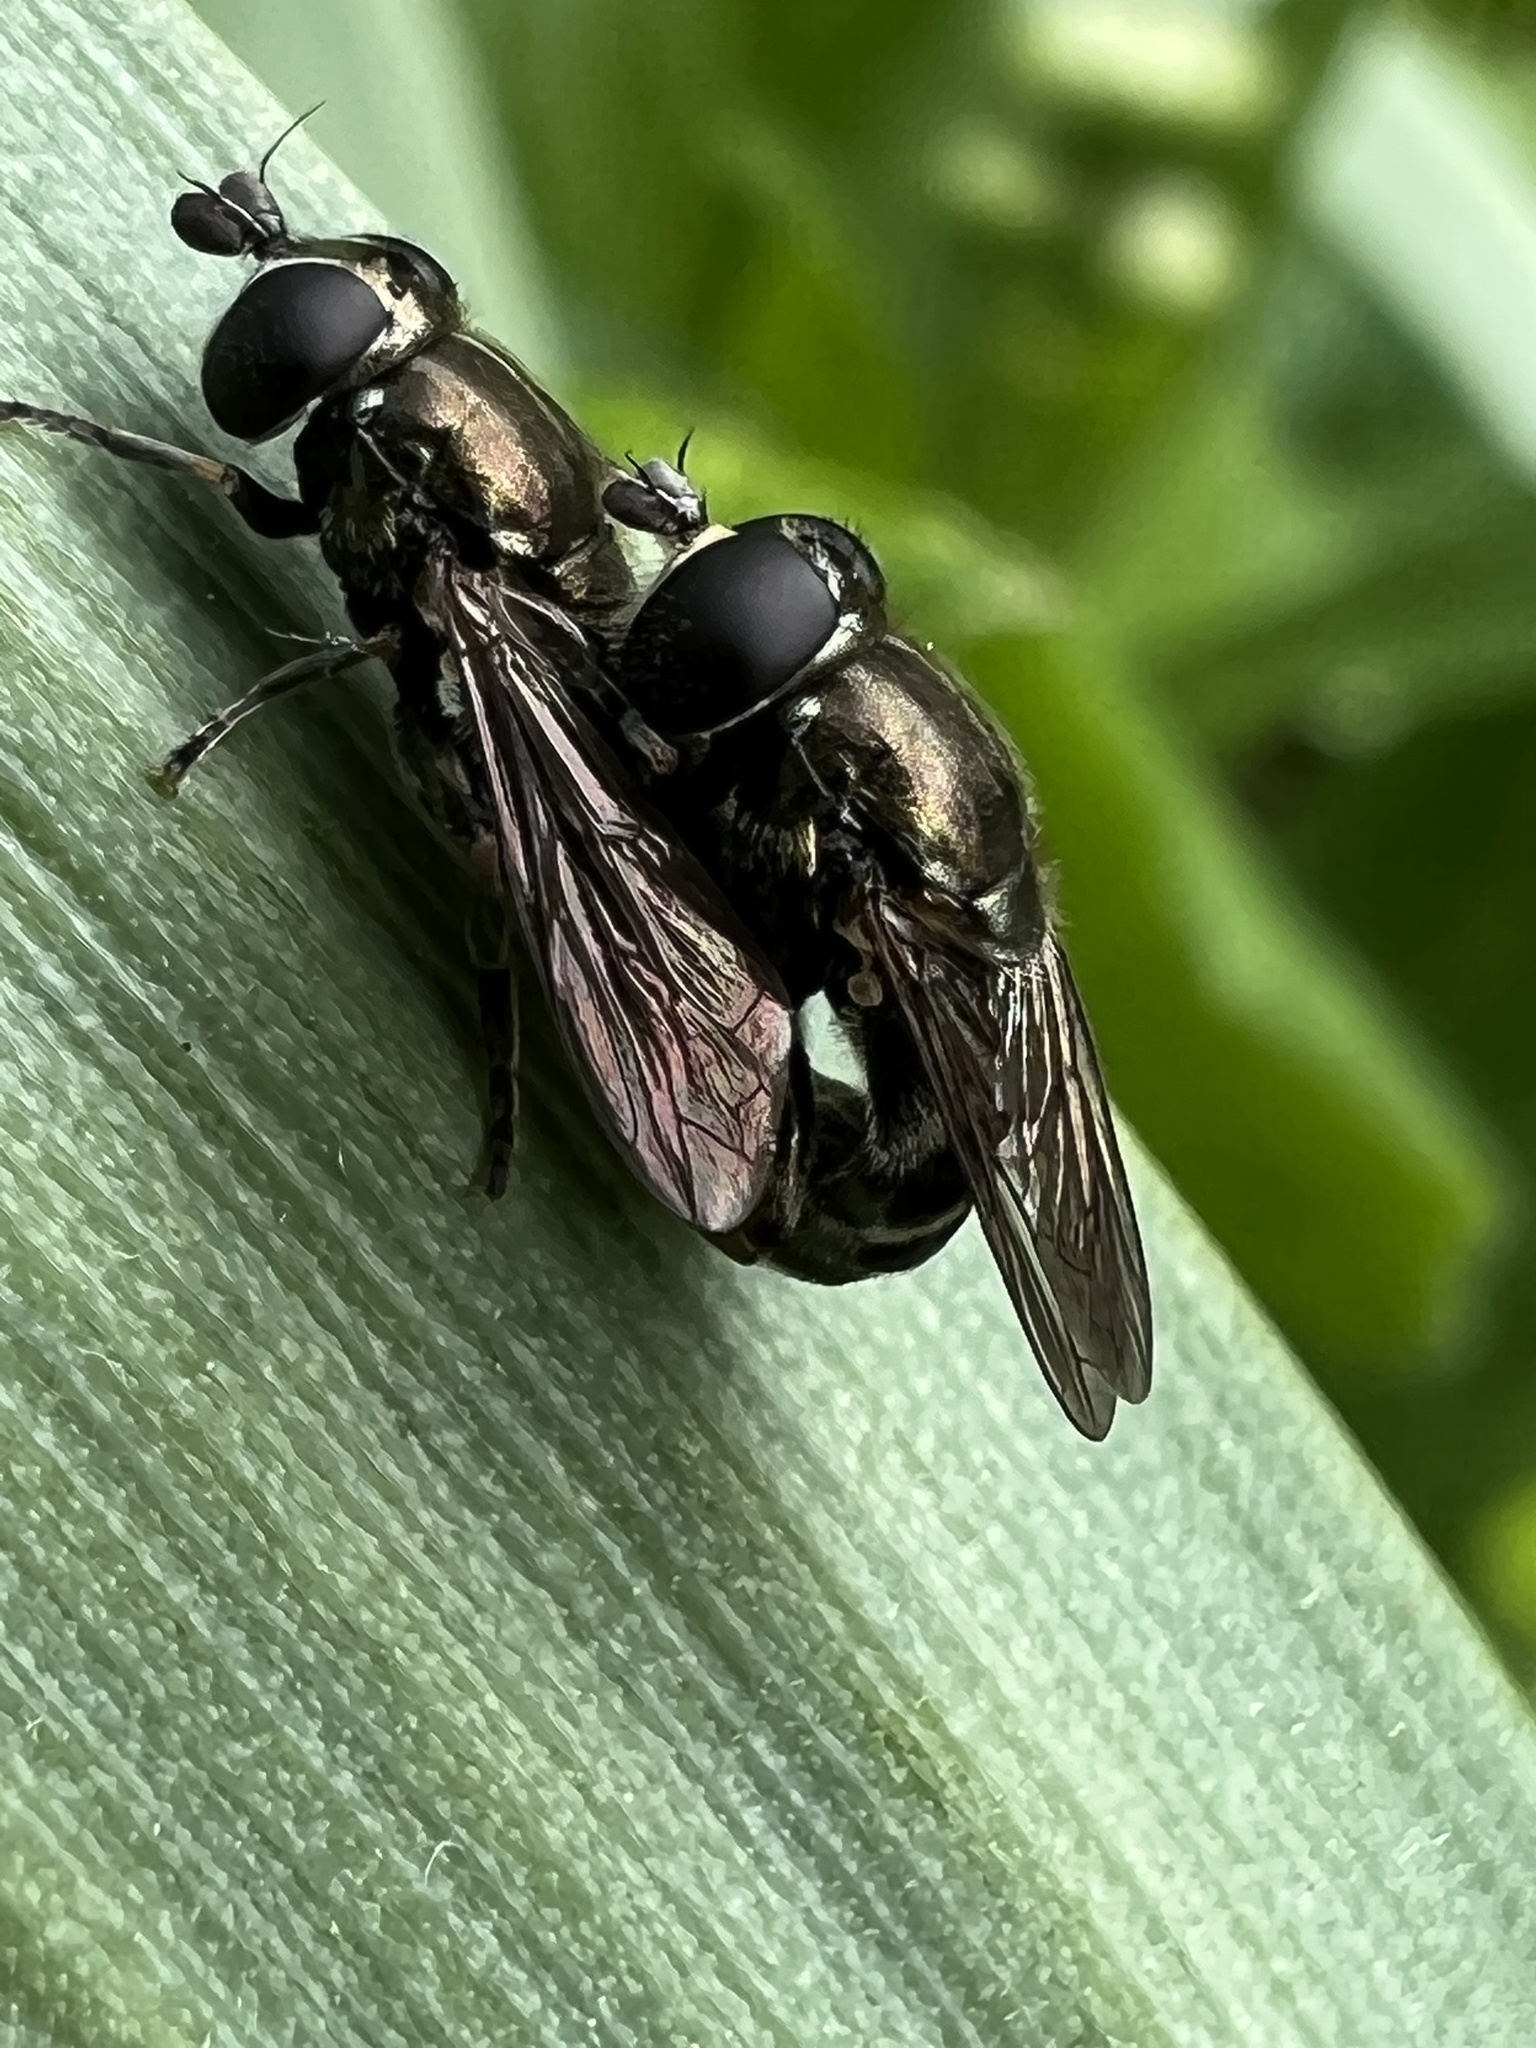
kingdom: Animalia
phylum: Arthropoda
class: Insecta
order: Diptera
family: Syrphidae
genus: Eumerus
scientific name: Eumerus
